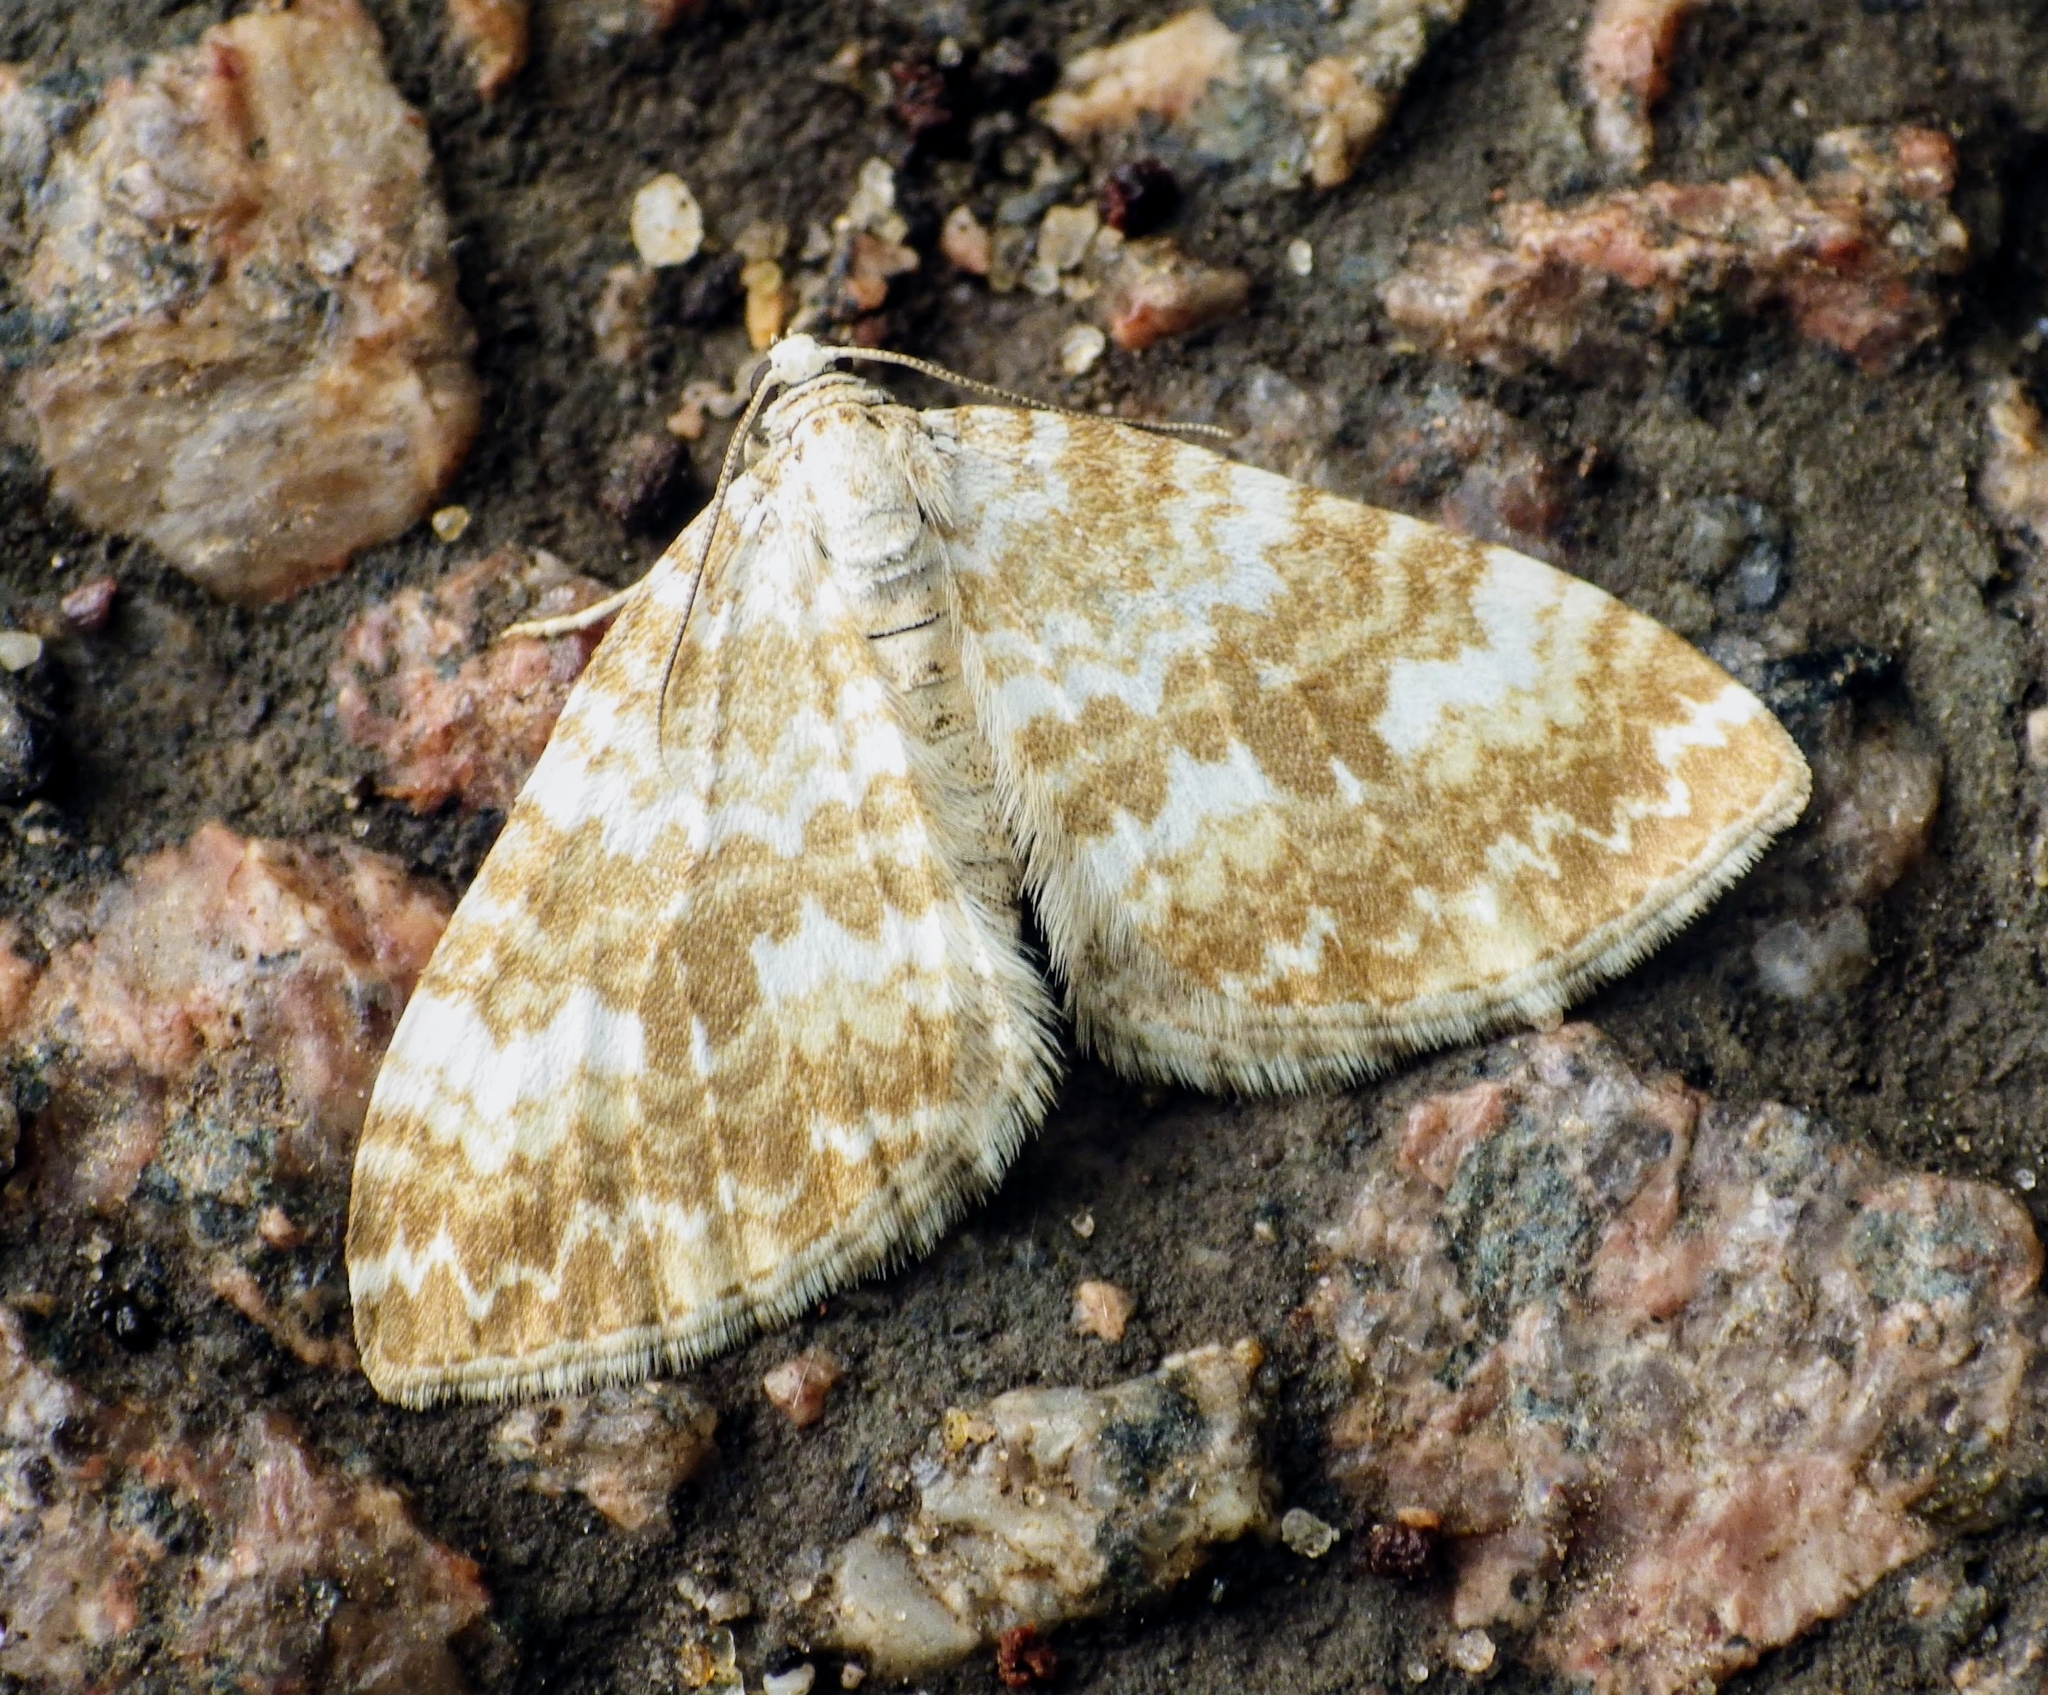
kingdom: Animalia
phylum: Arthropoda
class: Insecta
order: Lepidoptera
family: Geometridae
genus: Perizoma
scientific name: Perizoma flavofasciata
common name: Sandy carpet
